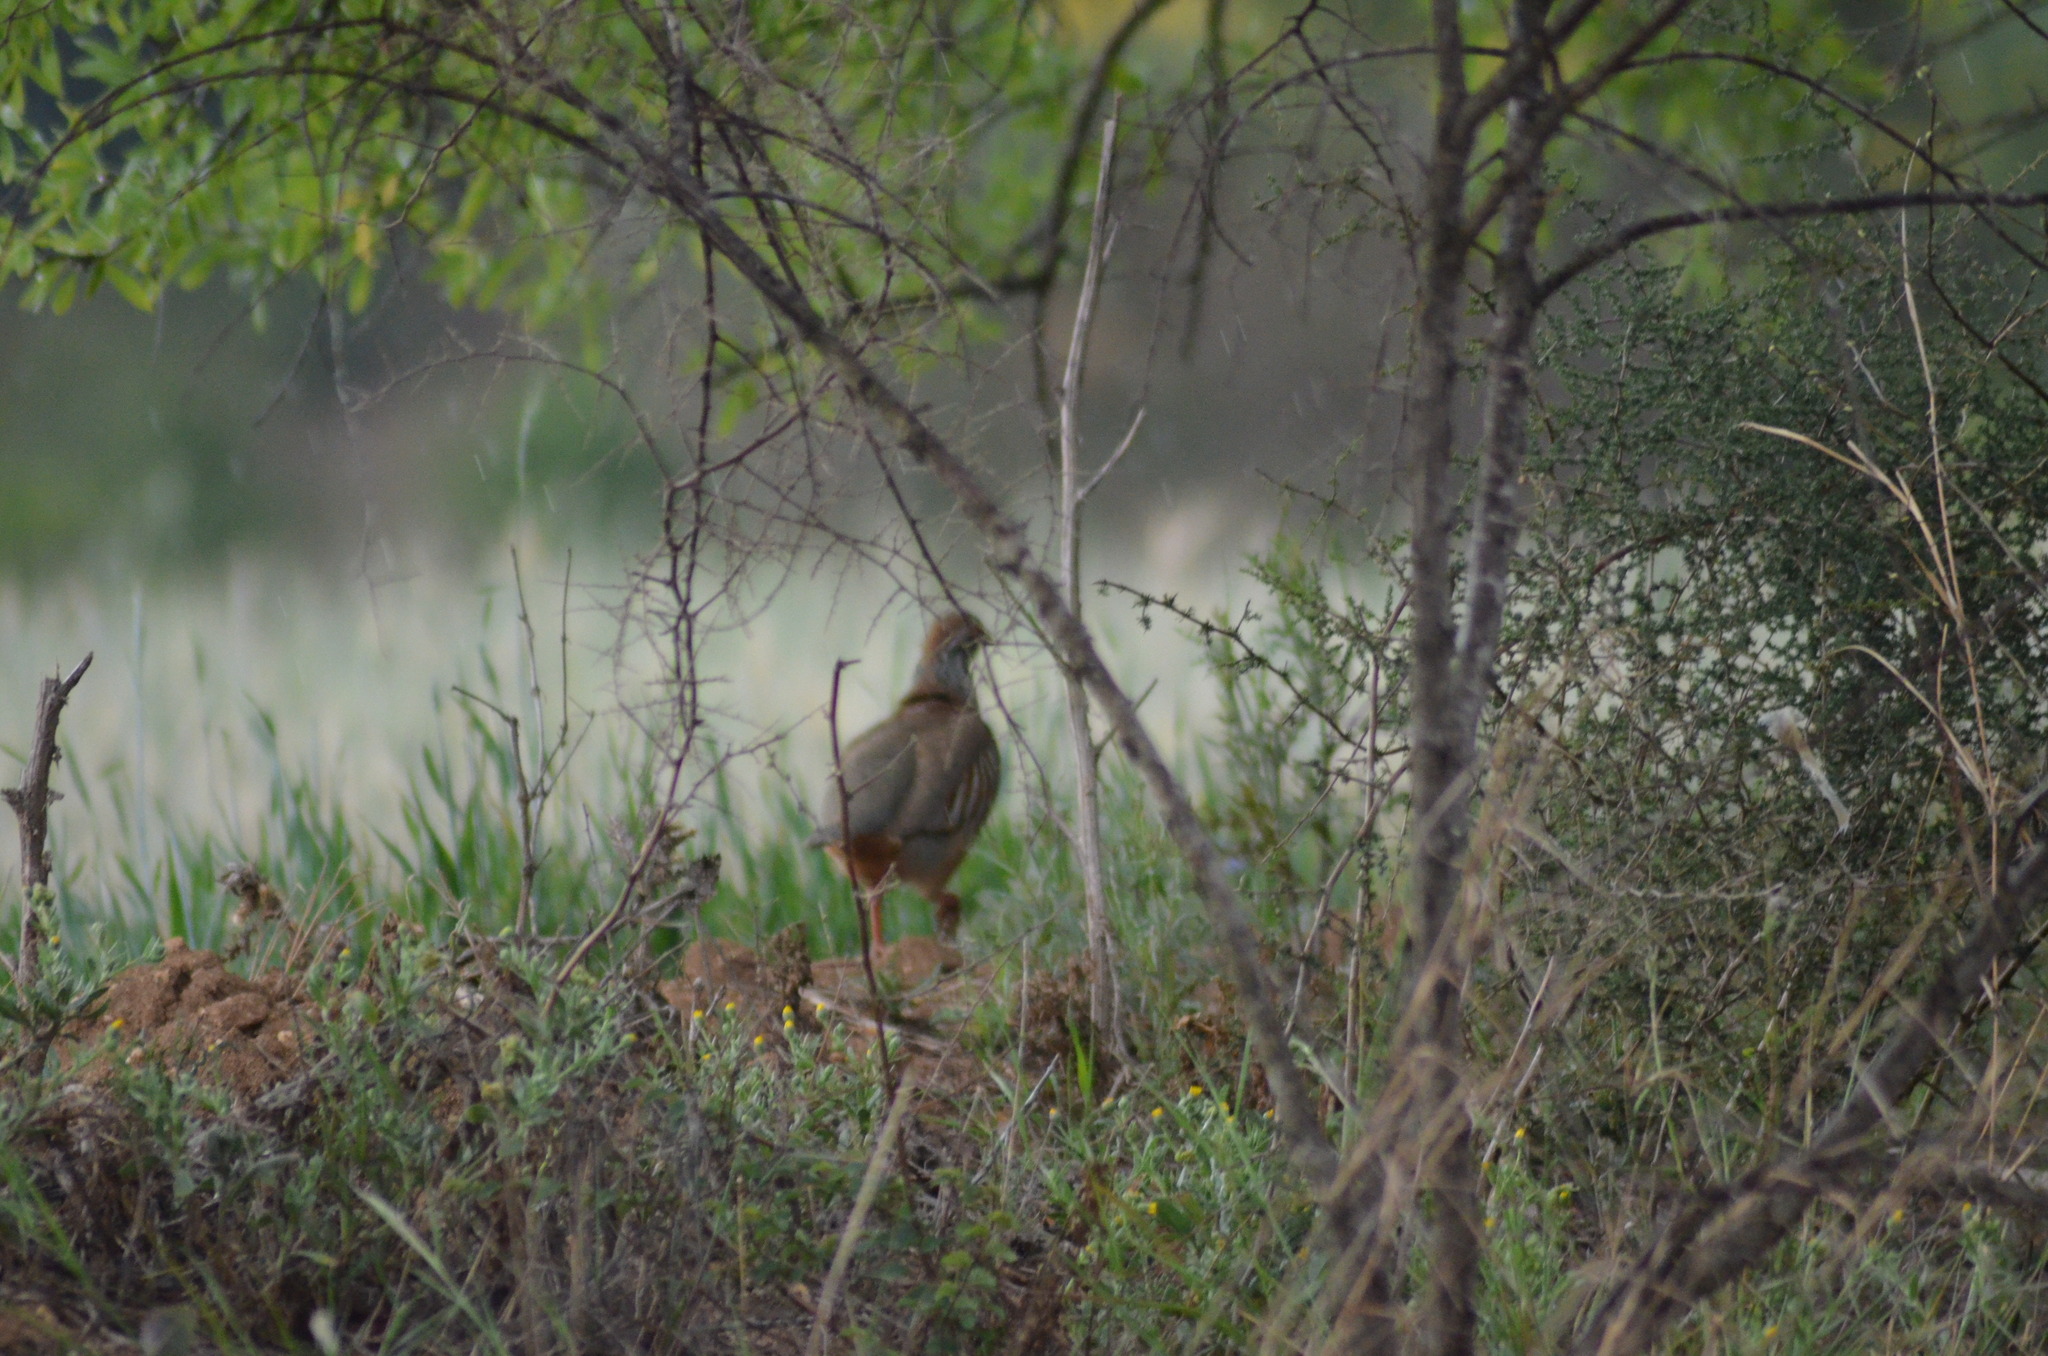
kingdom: Animalia
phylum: Chordata
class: Aves
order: Galliformes
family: Phasianidae
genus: Alectoris
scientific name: Alectoris rufa
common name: Red-legged partridge
